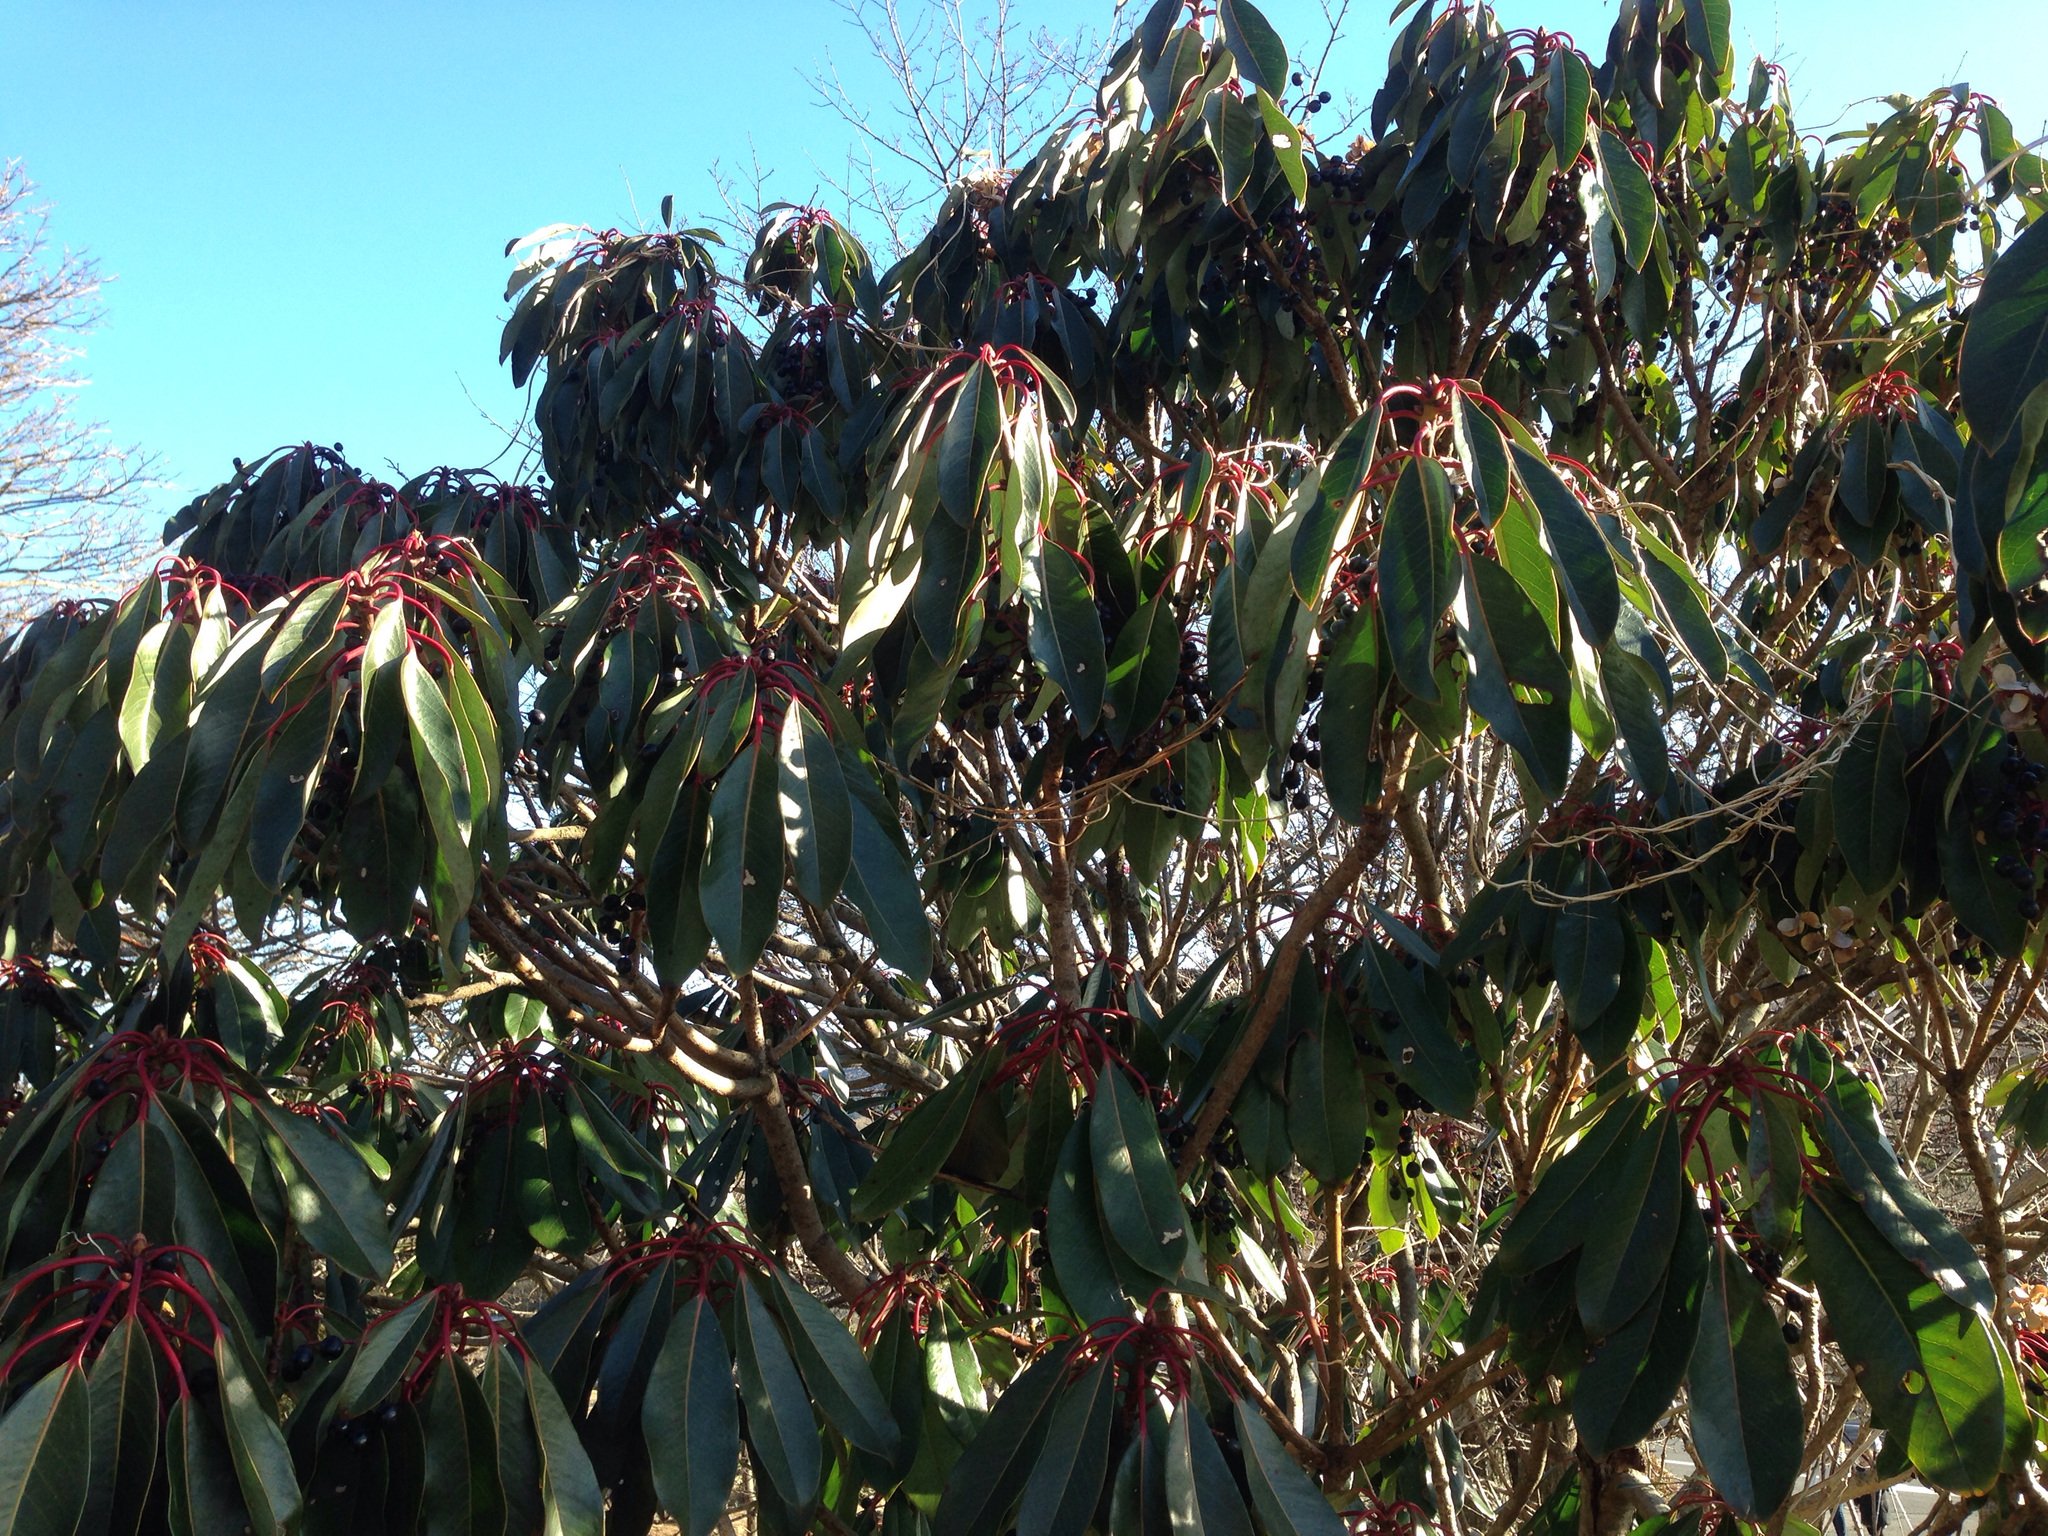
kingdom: Plantae
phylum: Tracheophyta
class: Magnoliopsida
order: Saxifragales
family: Daphniphyllaceae
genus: Daphniphyllum
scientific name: Daphniphyllum macropodum
